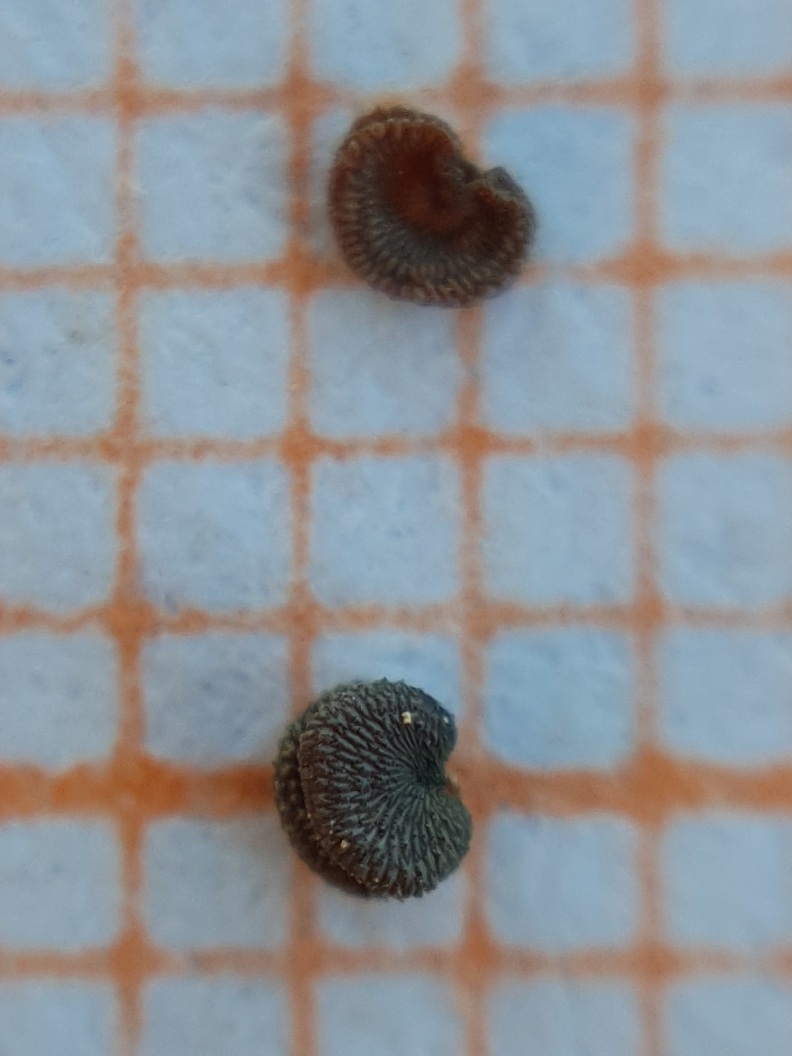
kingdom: Plantae
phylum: Tracheophyta
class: Magnoliopsida
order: Caryophyllales
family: Caryophyllaceae
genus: Silene
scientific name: Silene andryalifolia
